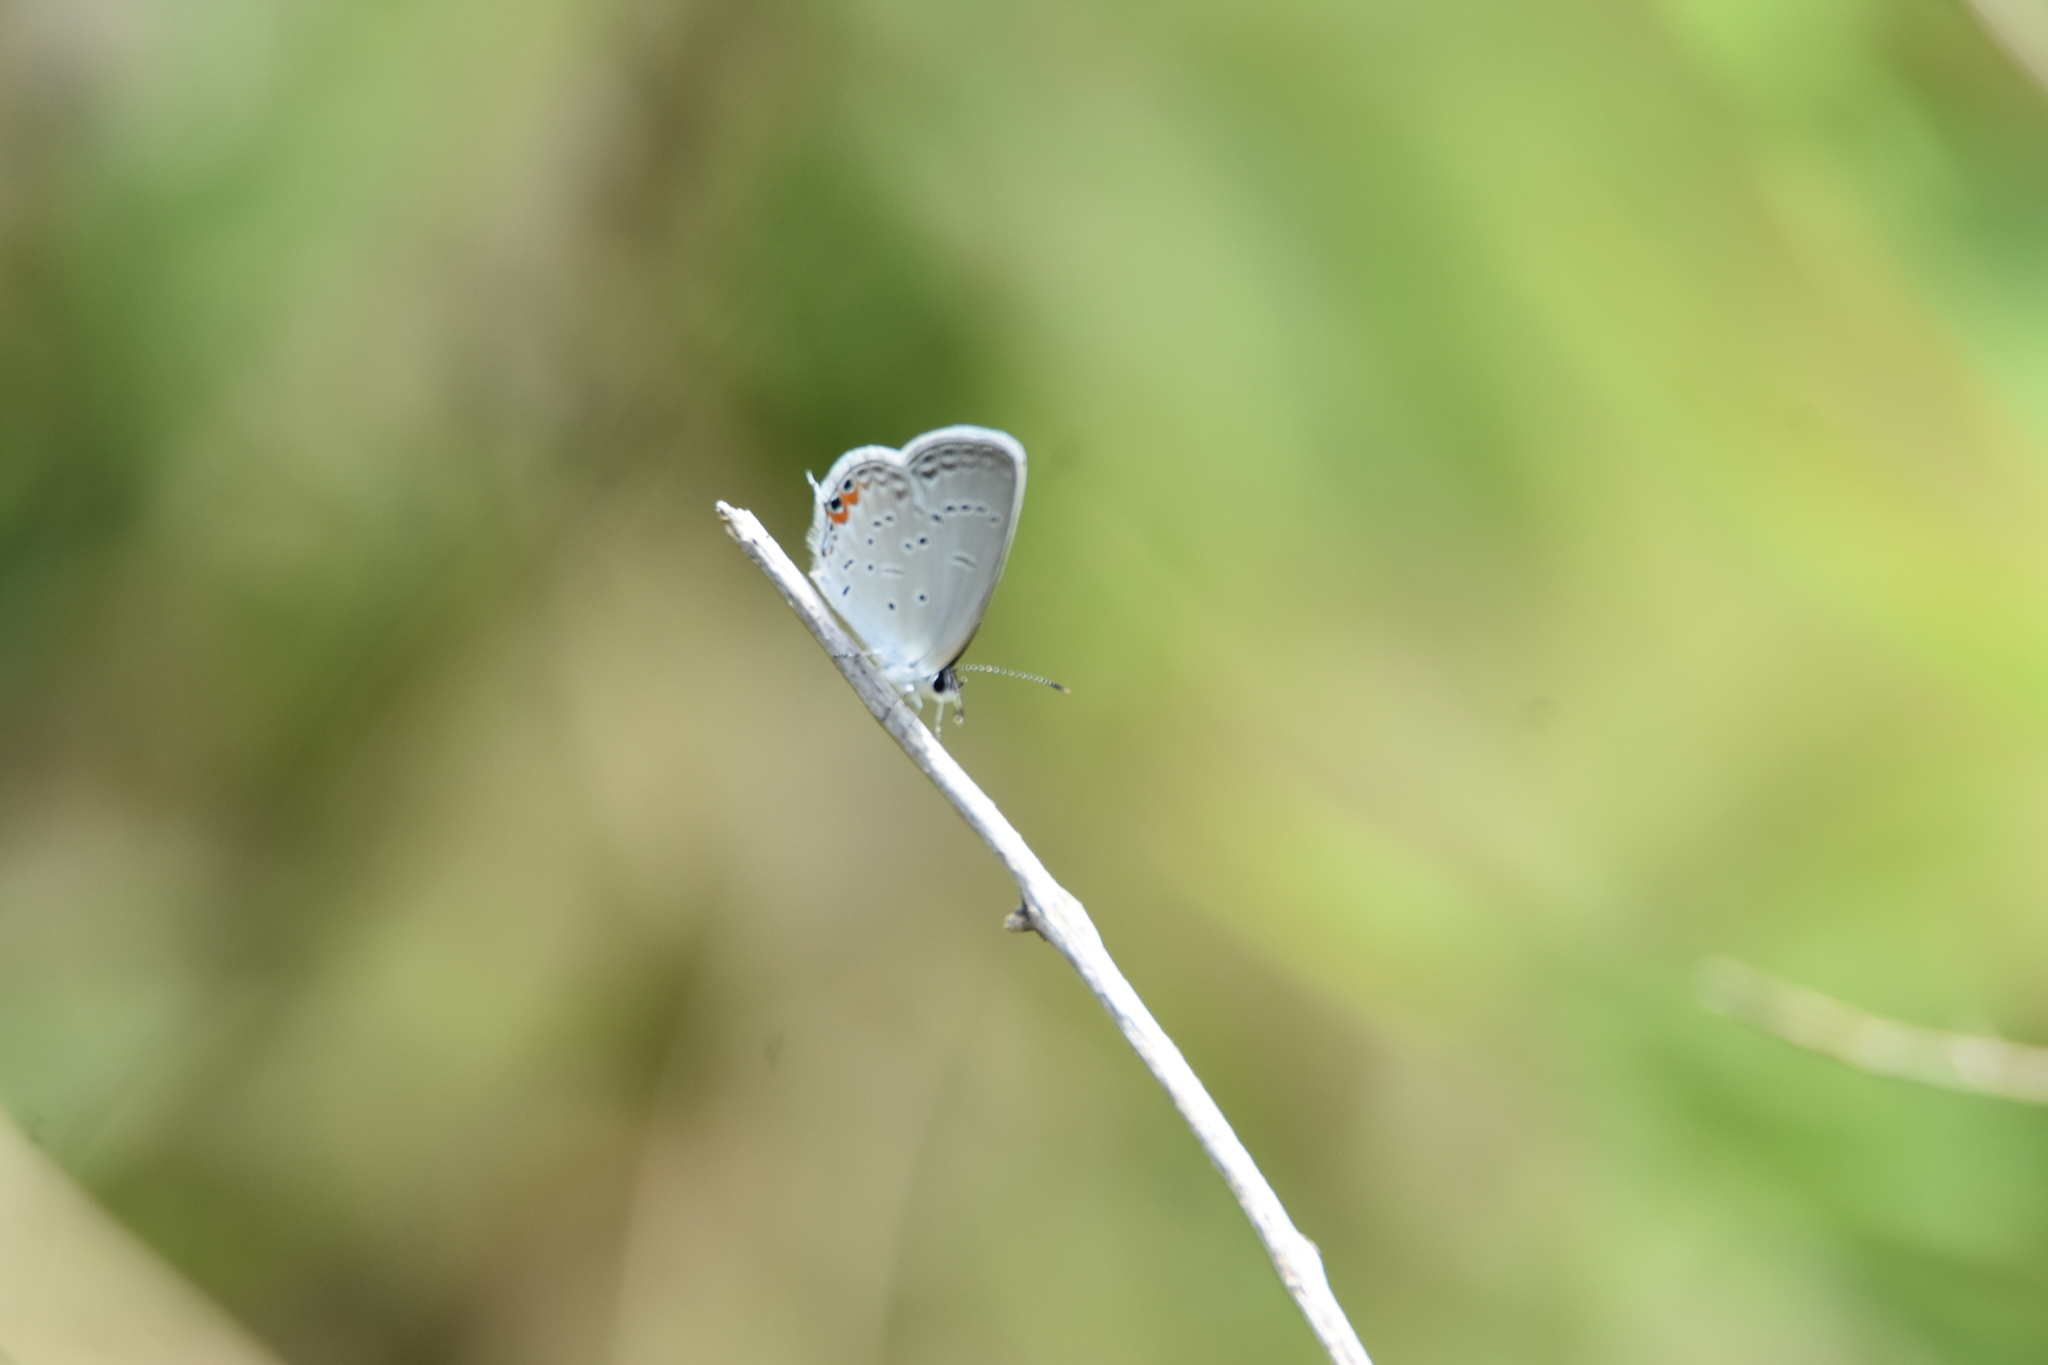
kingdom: Animalia
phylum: Arthropoda
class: Insecta
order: Lepidoptera
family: Lycaenidae
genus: Elkalyce
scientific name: Elkalyce comyntas
